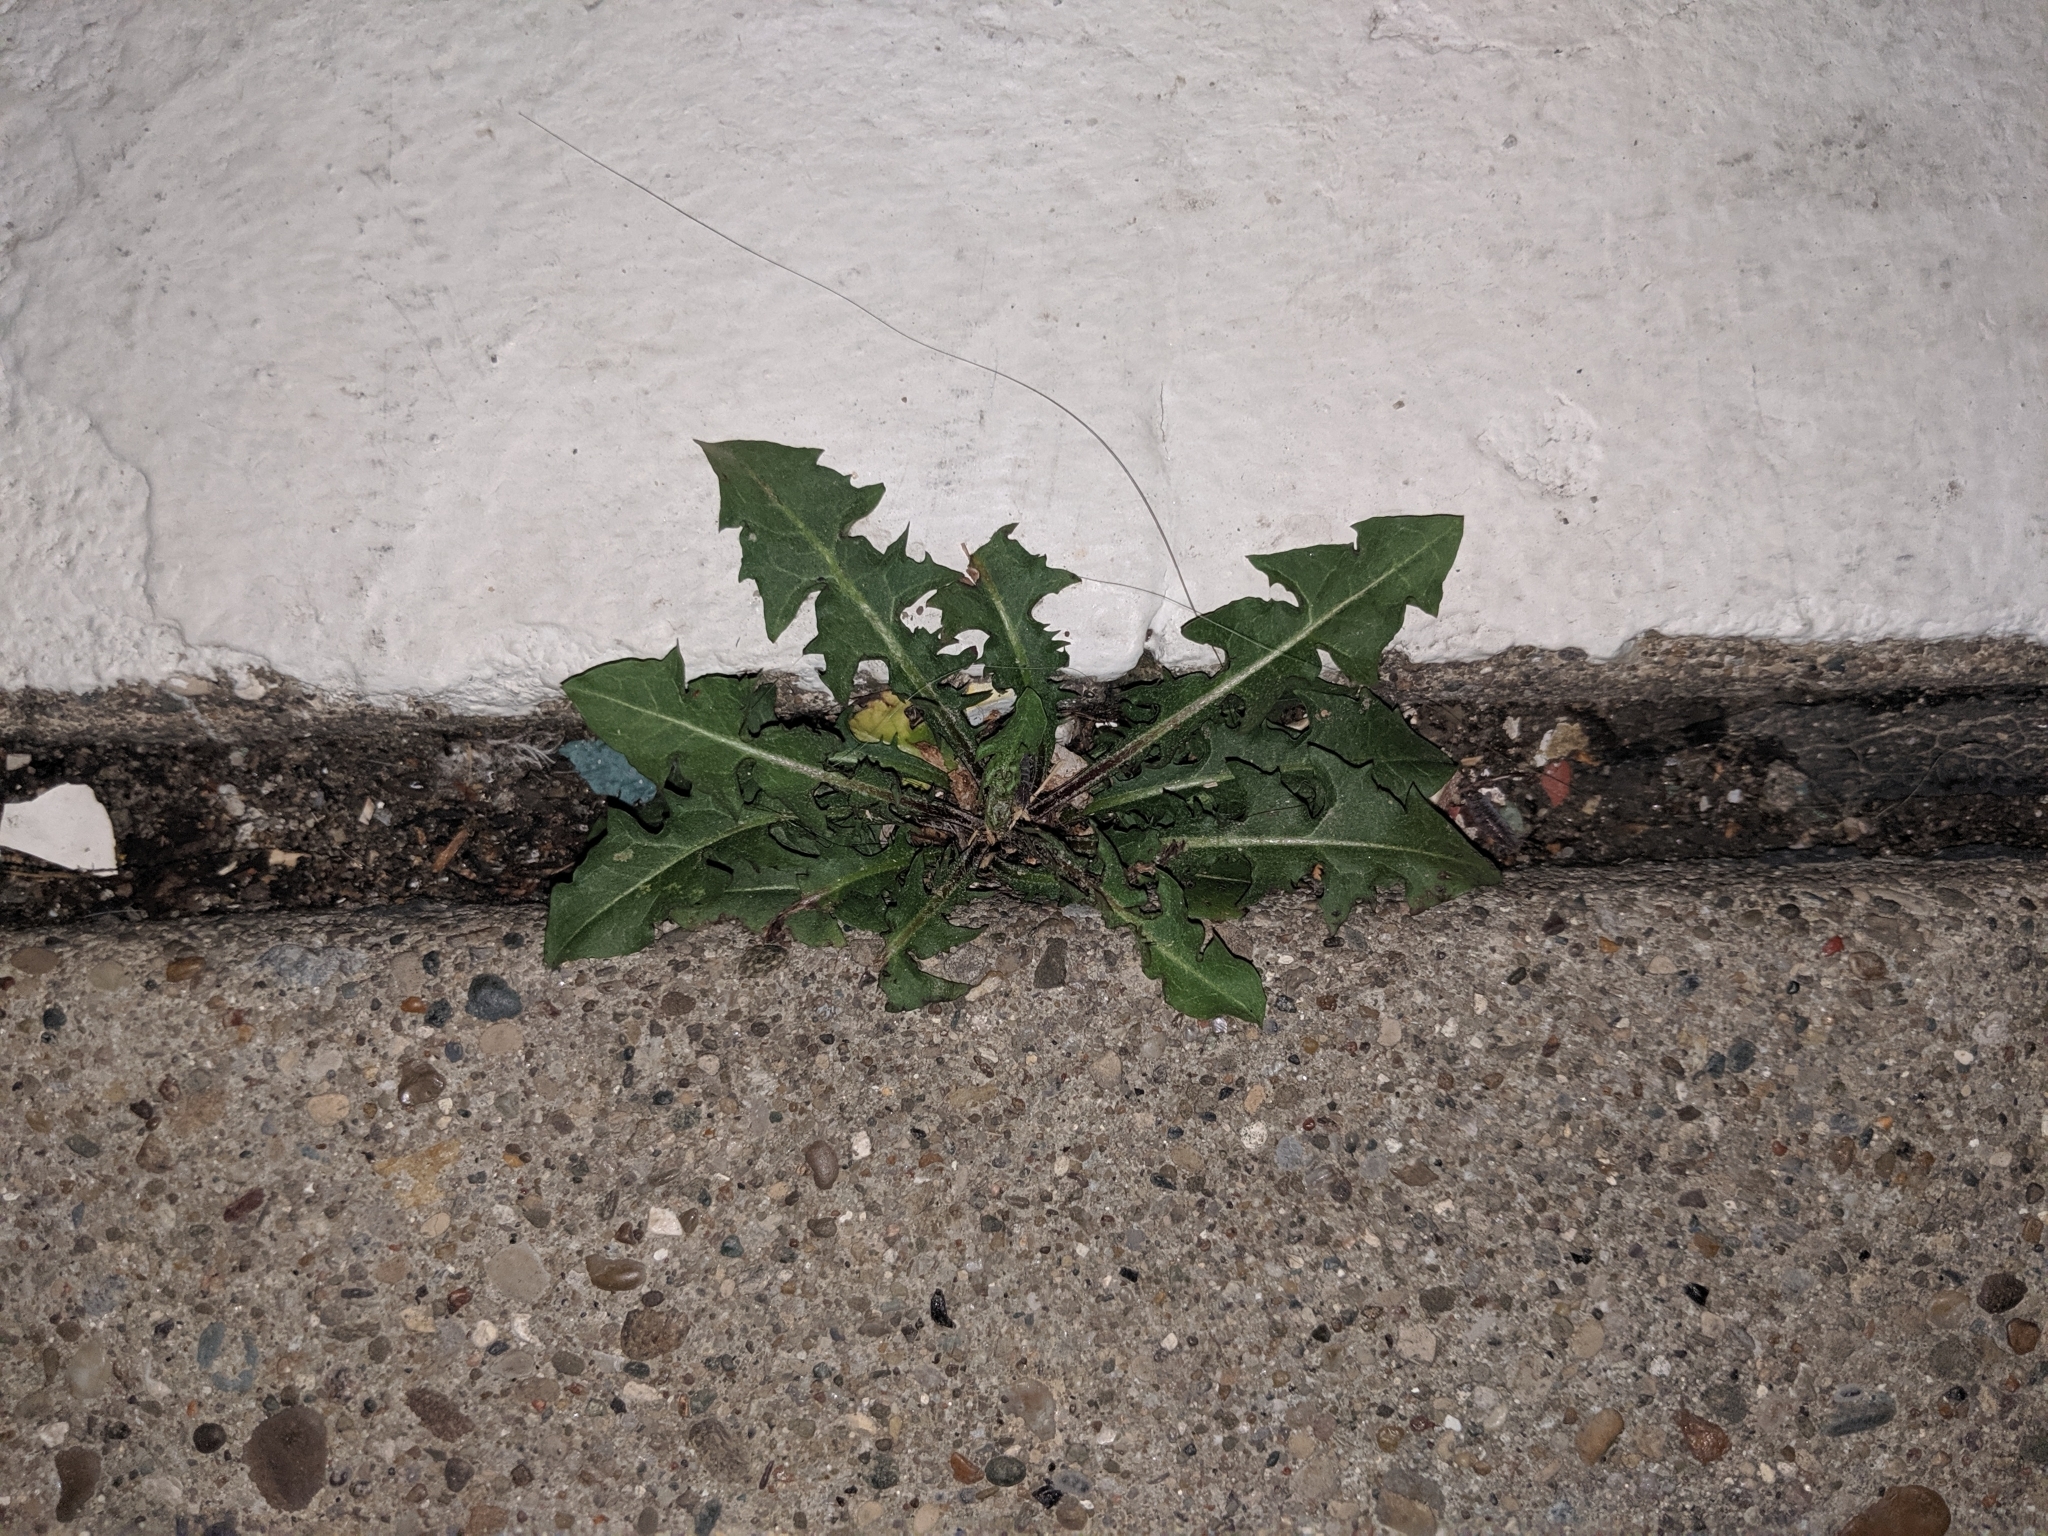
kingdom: Plantae
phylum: Tracheophyta
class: Magnoliopsida
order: Asterales
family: Asteraceae
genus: Taraxacum
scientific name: Taraxacum officinale
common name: Common dandelion
